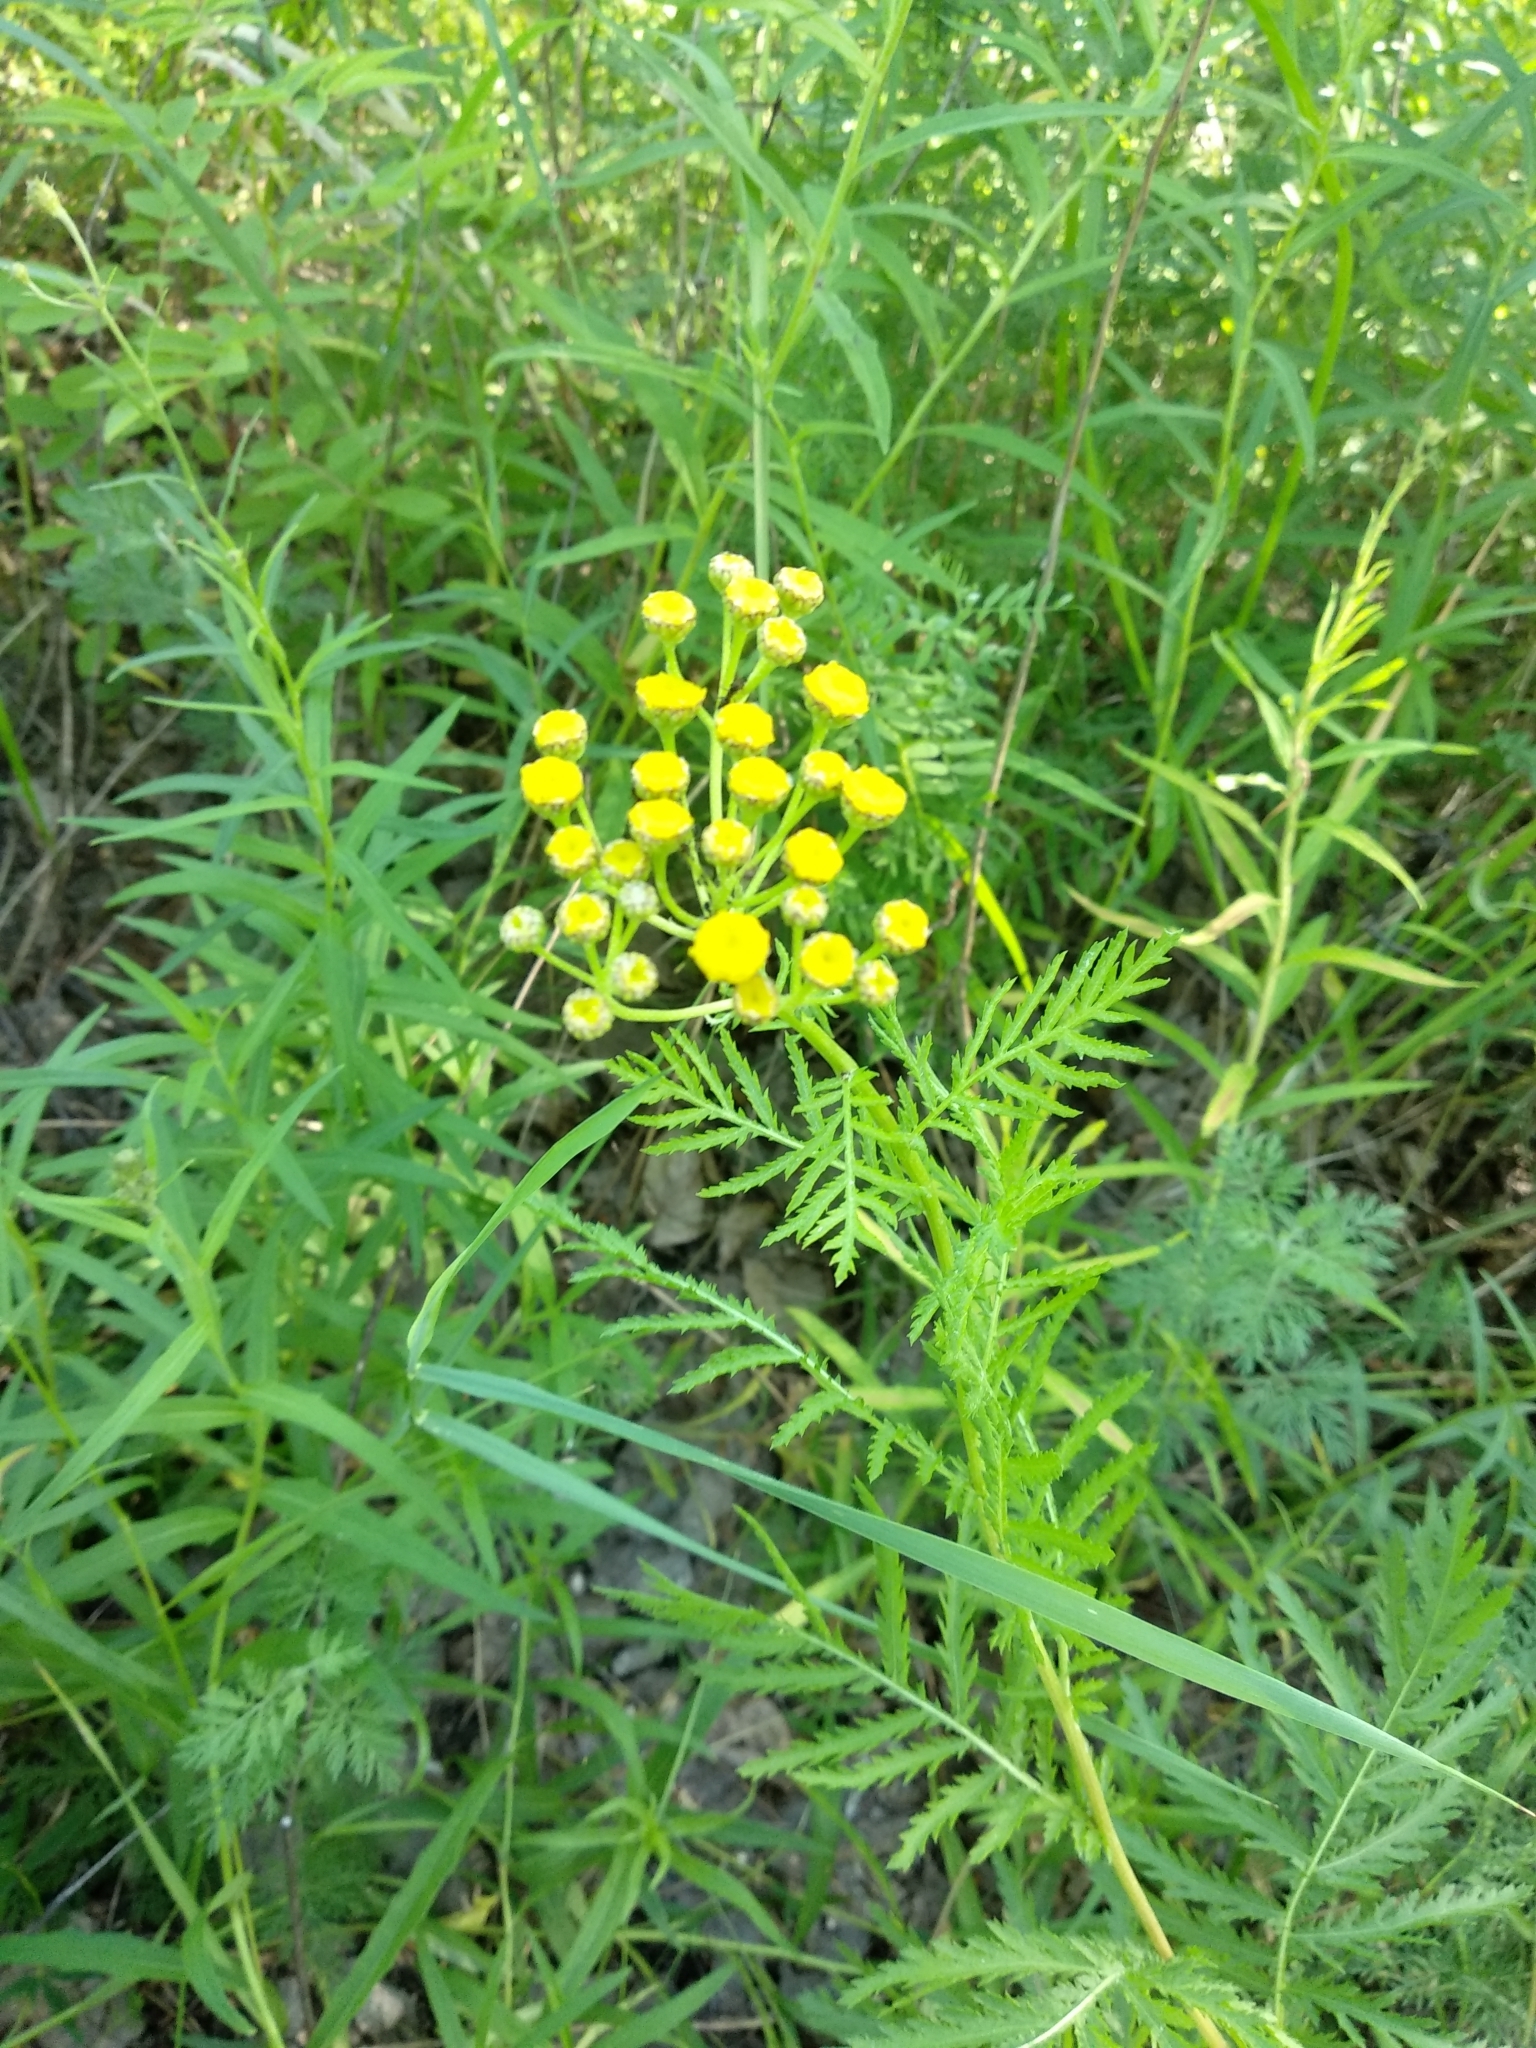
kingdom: Plantae
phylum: Tracheophyta
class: Magnoliopsida
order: Asterales
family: Asteraceae
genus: Tanacetum
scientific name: Tanacetum vulgare
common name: Common tansy
